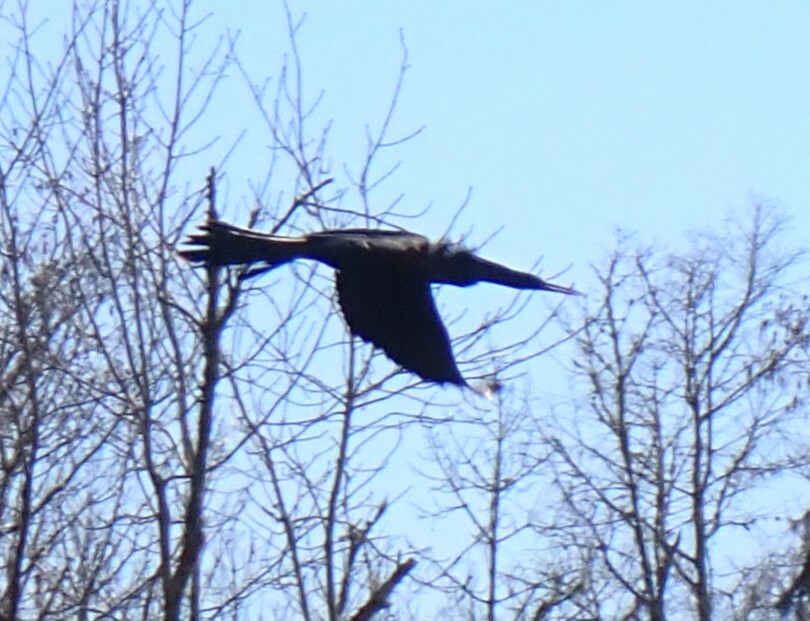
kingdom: Animalia
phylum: Chordata
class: Aves
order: Suliformes
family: Anhingidae
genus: Anhinga
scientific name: Anhinga anhinga
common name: Anhinga
